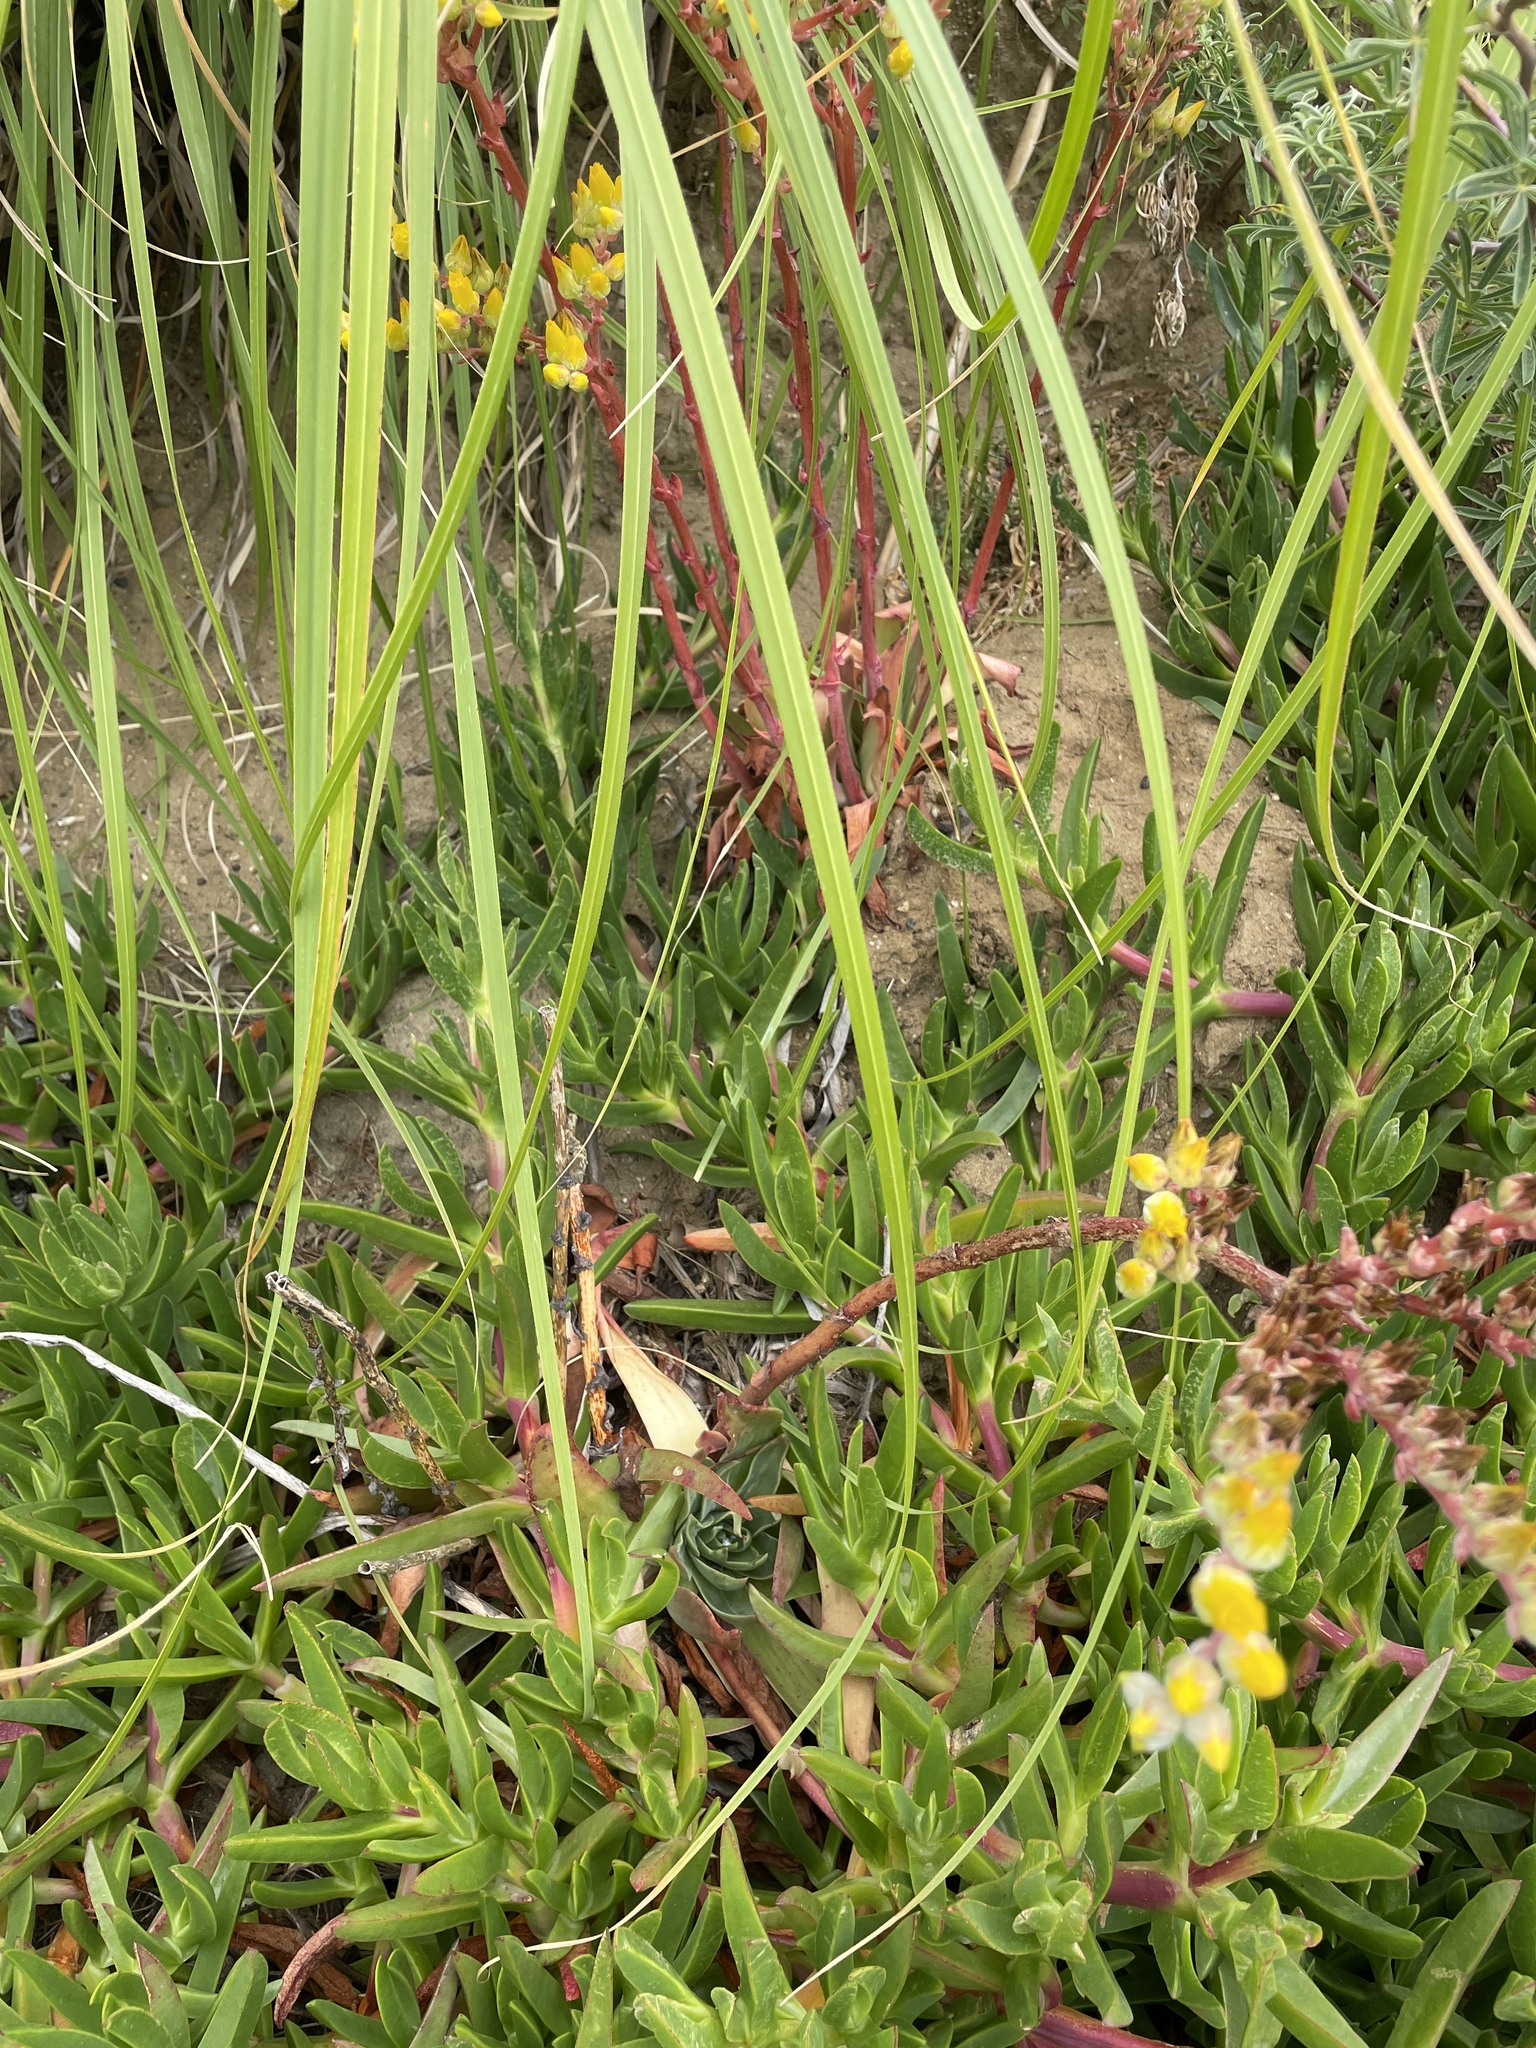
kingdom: Plantae
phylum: Tracheophyta
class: Magnoliopsida
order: Saxifragales
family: Crassulaceae
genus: Dudleya
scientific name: Dudleya caespitosa
